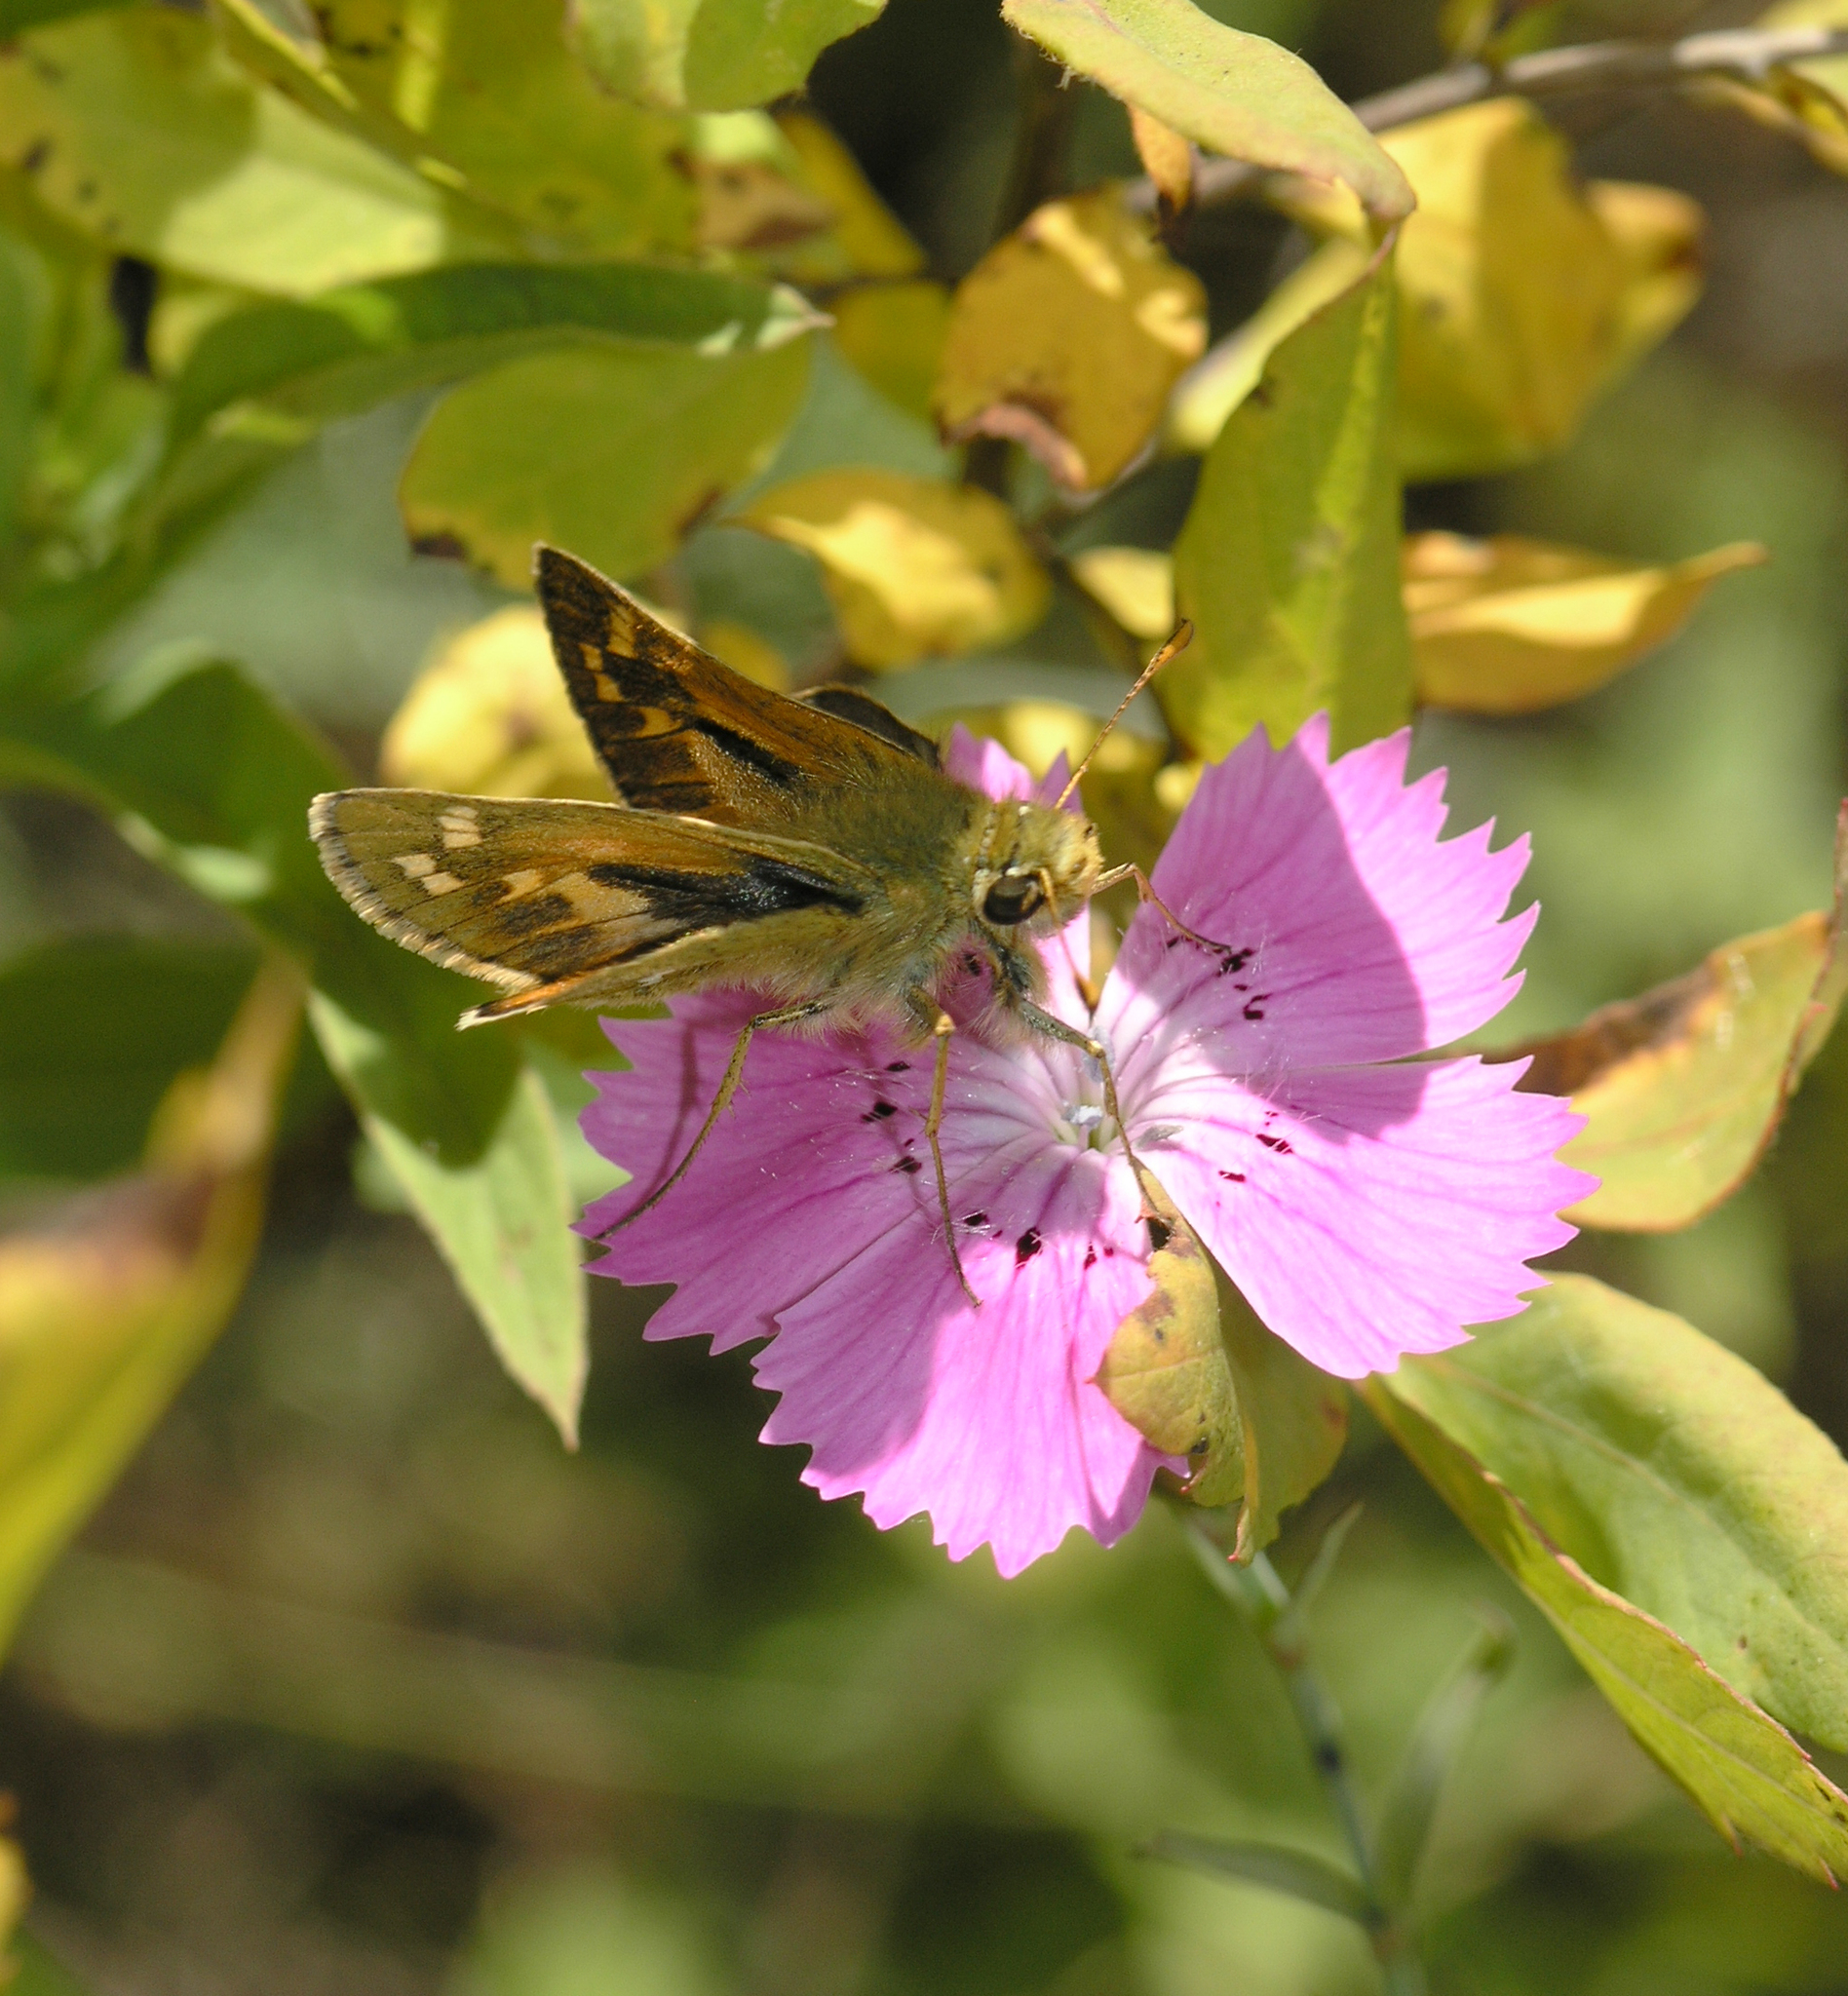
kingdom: Animalia
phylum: Arthropoda
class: Insecta
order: Lepidoptera
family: Hesperiidae
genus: Hesperia
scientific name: Hesperia comma
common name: Common branded skipper
